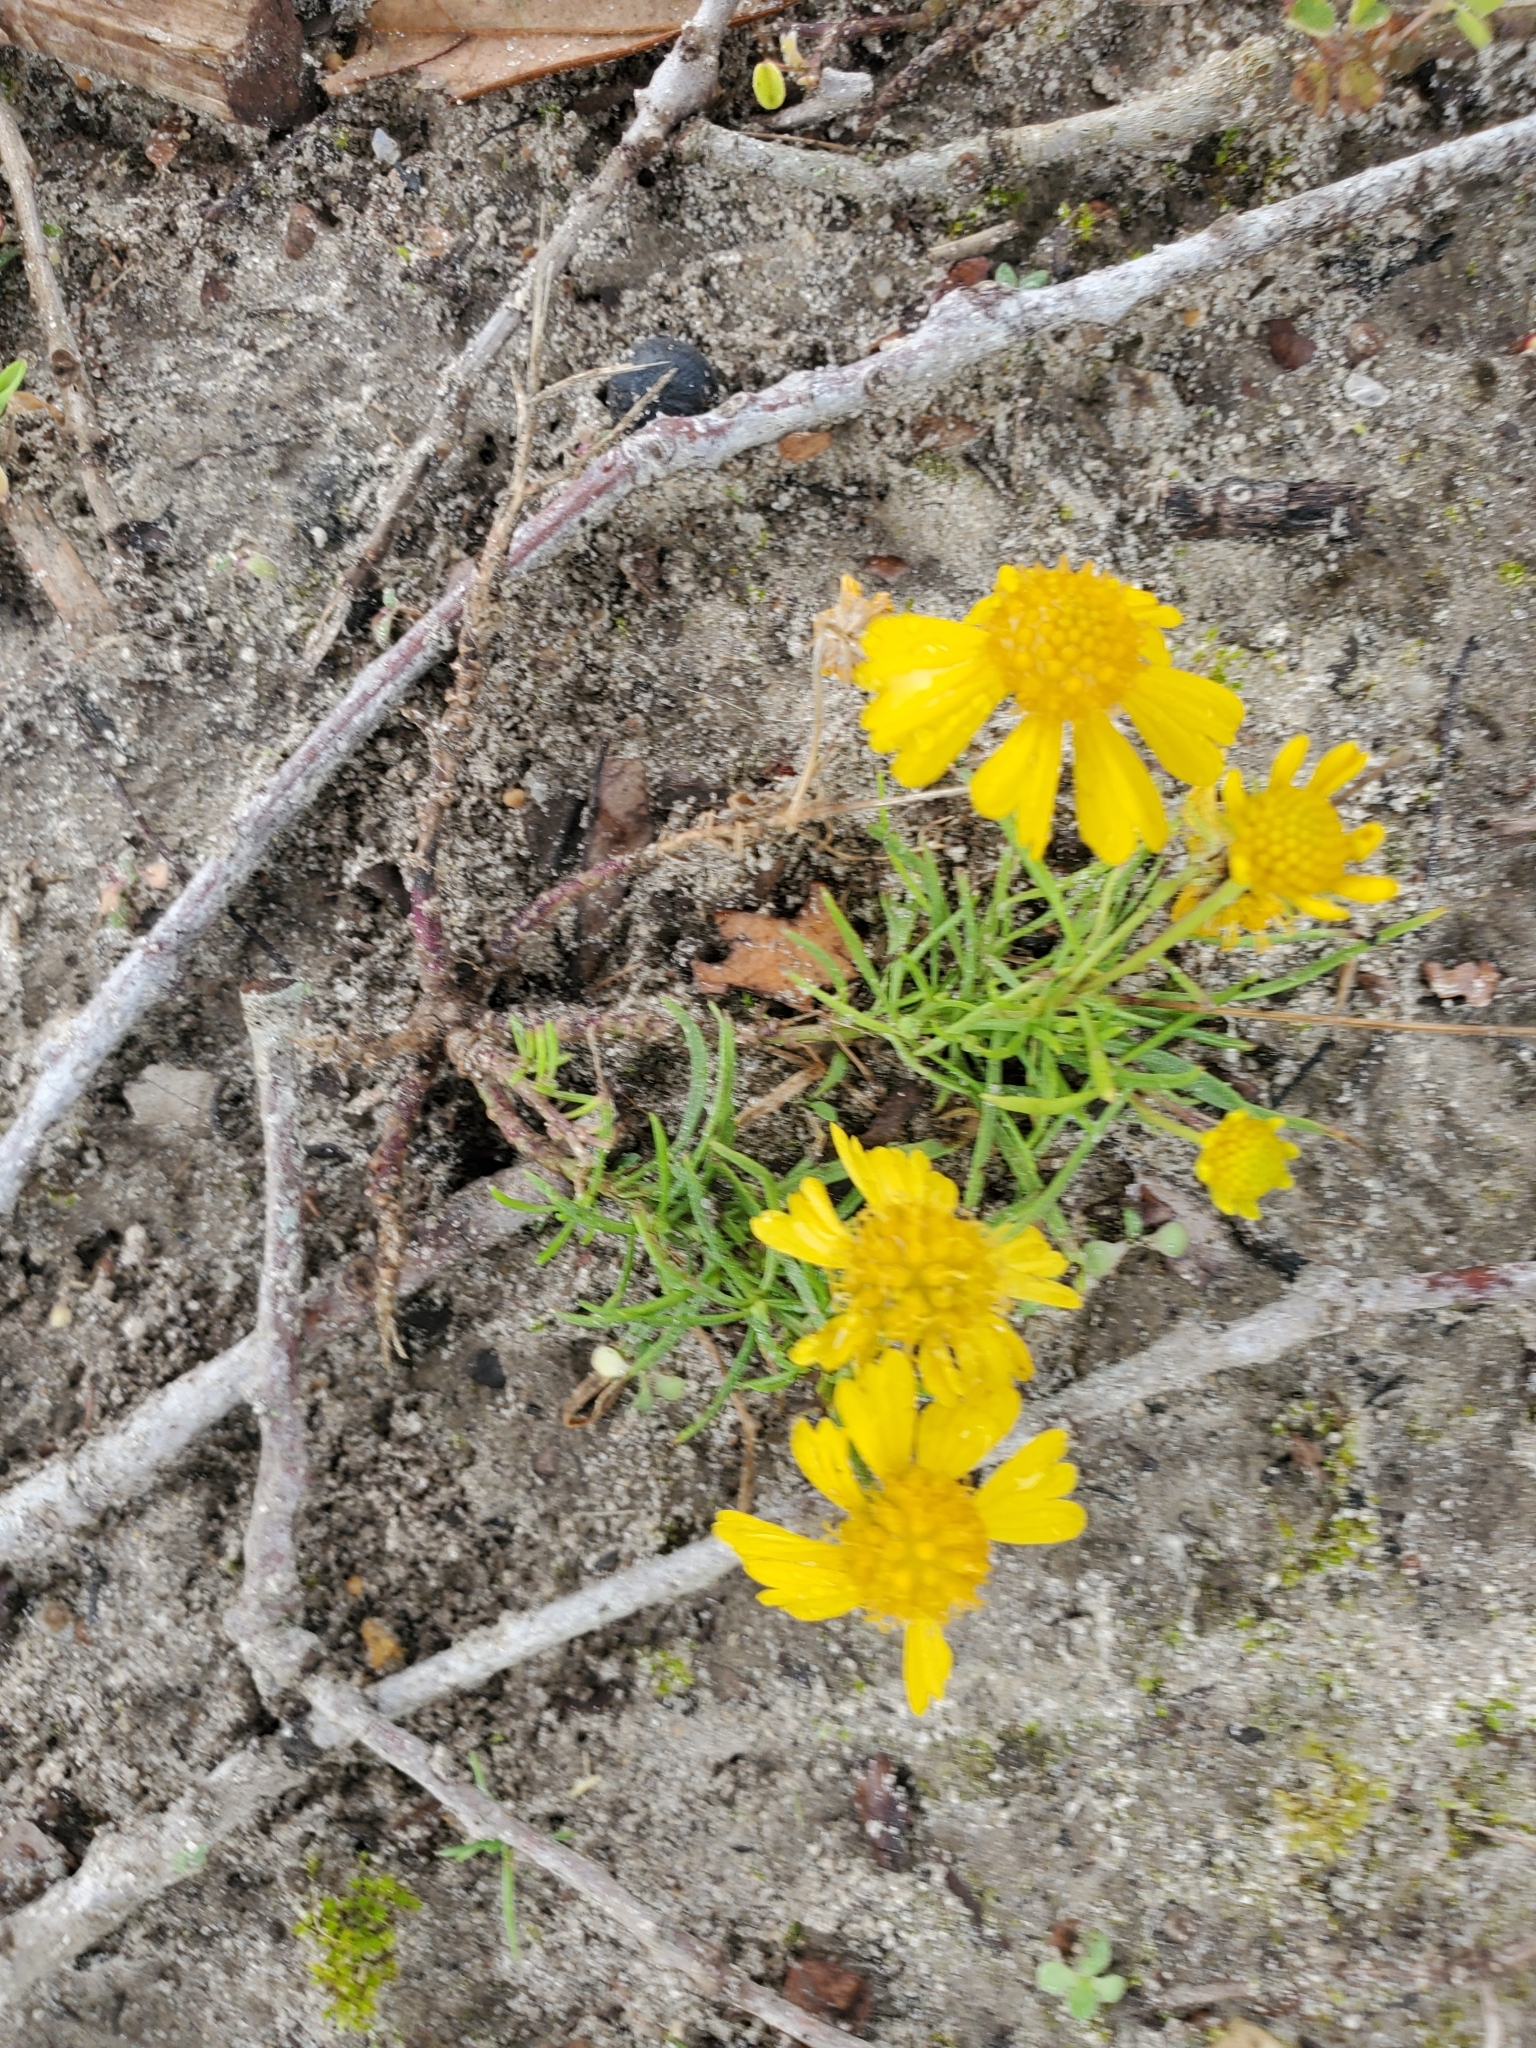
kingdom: Plantae
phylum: Tracheophyta
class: Magnoliopsida
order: Asterales
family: Asteraceae
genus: Helenium
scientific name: Helenium amarum
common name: Bitter sneezeweed
